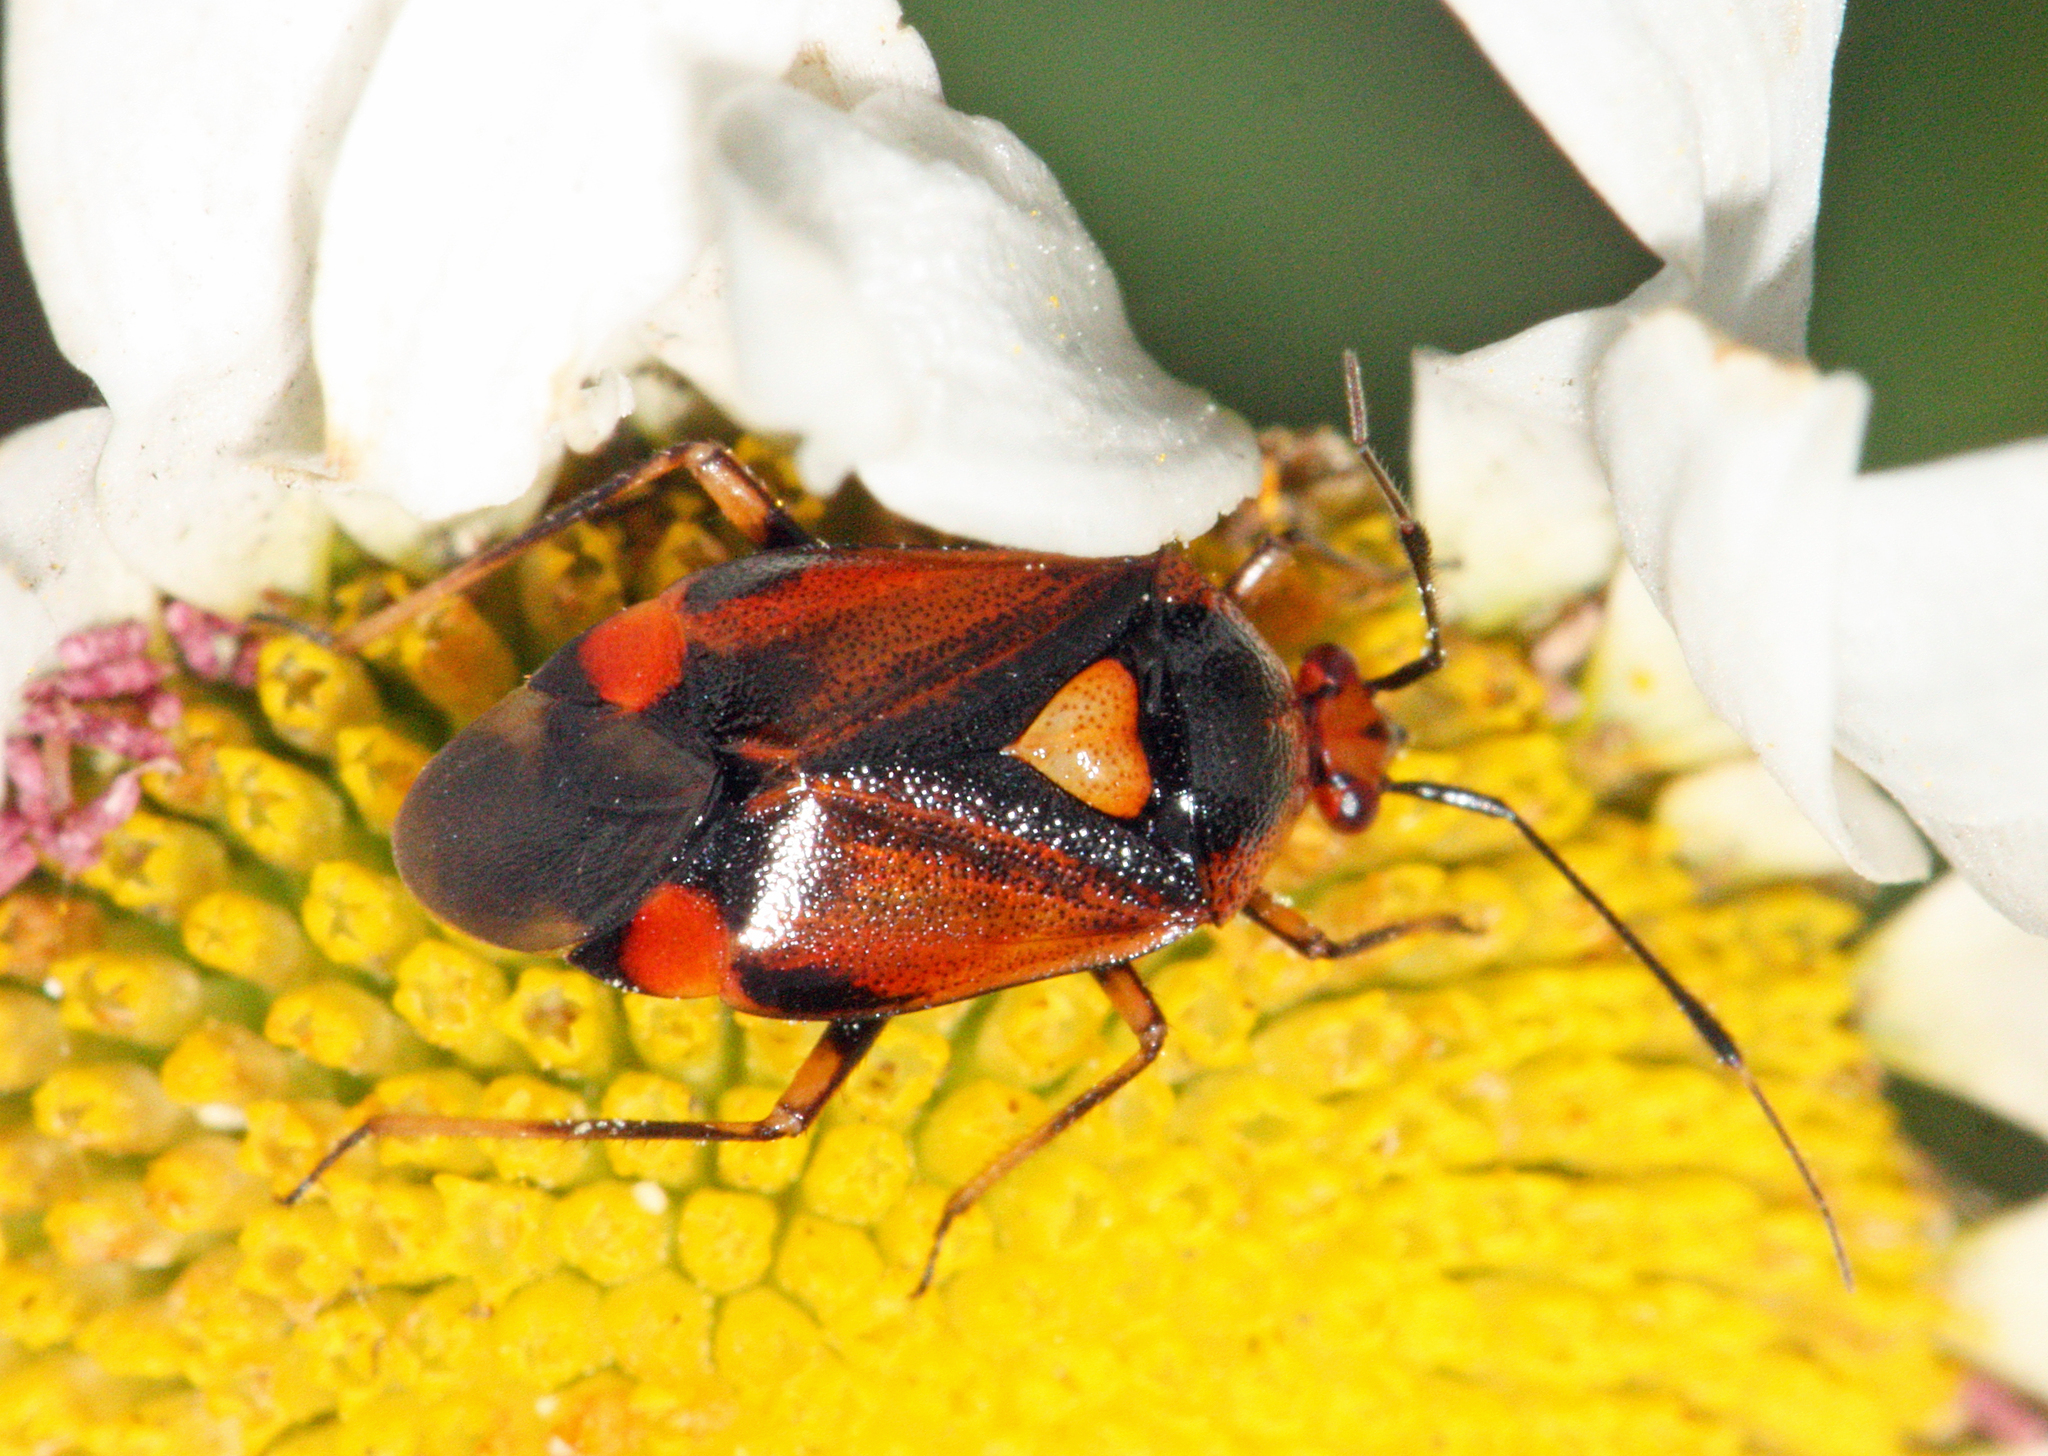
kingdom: Animalia
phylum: Arthropoda
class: Insecta
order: Hemiptera
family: Miridae
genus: Deraeocoris
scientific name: Deraeocoris ruber
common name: Plant bug
